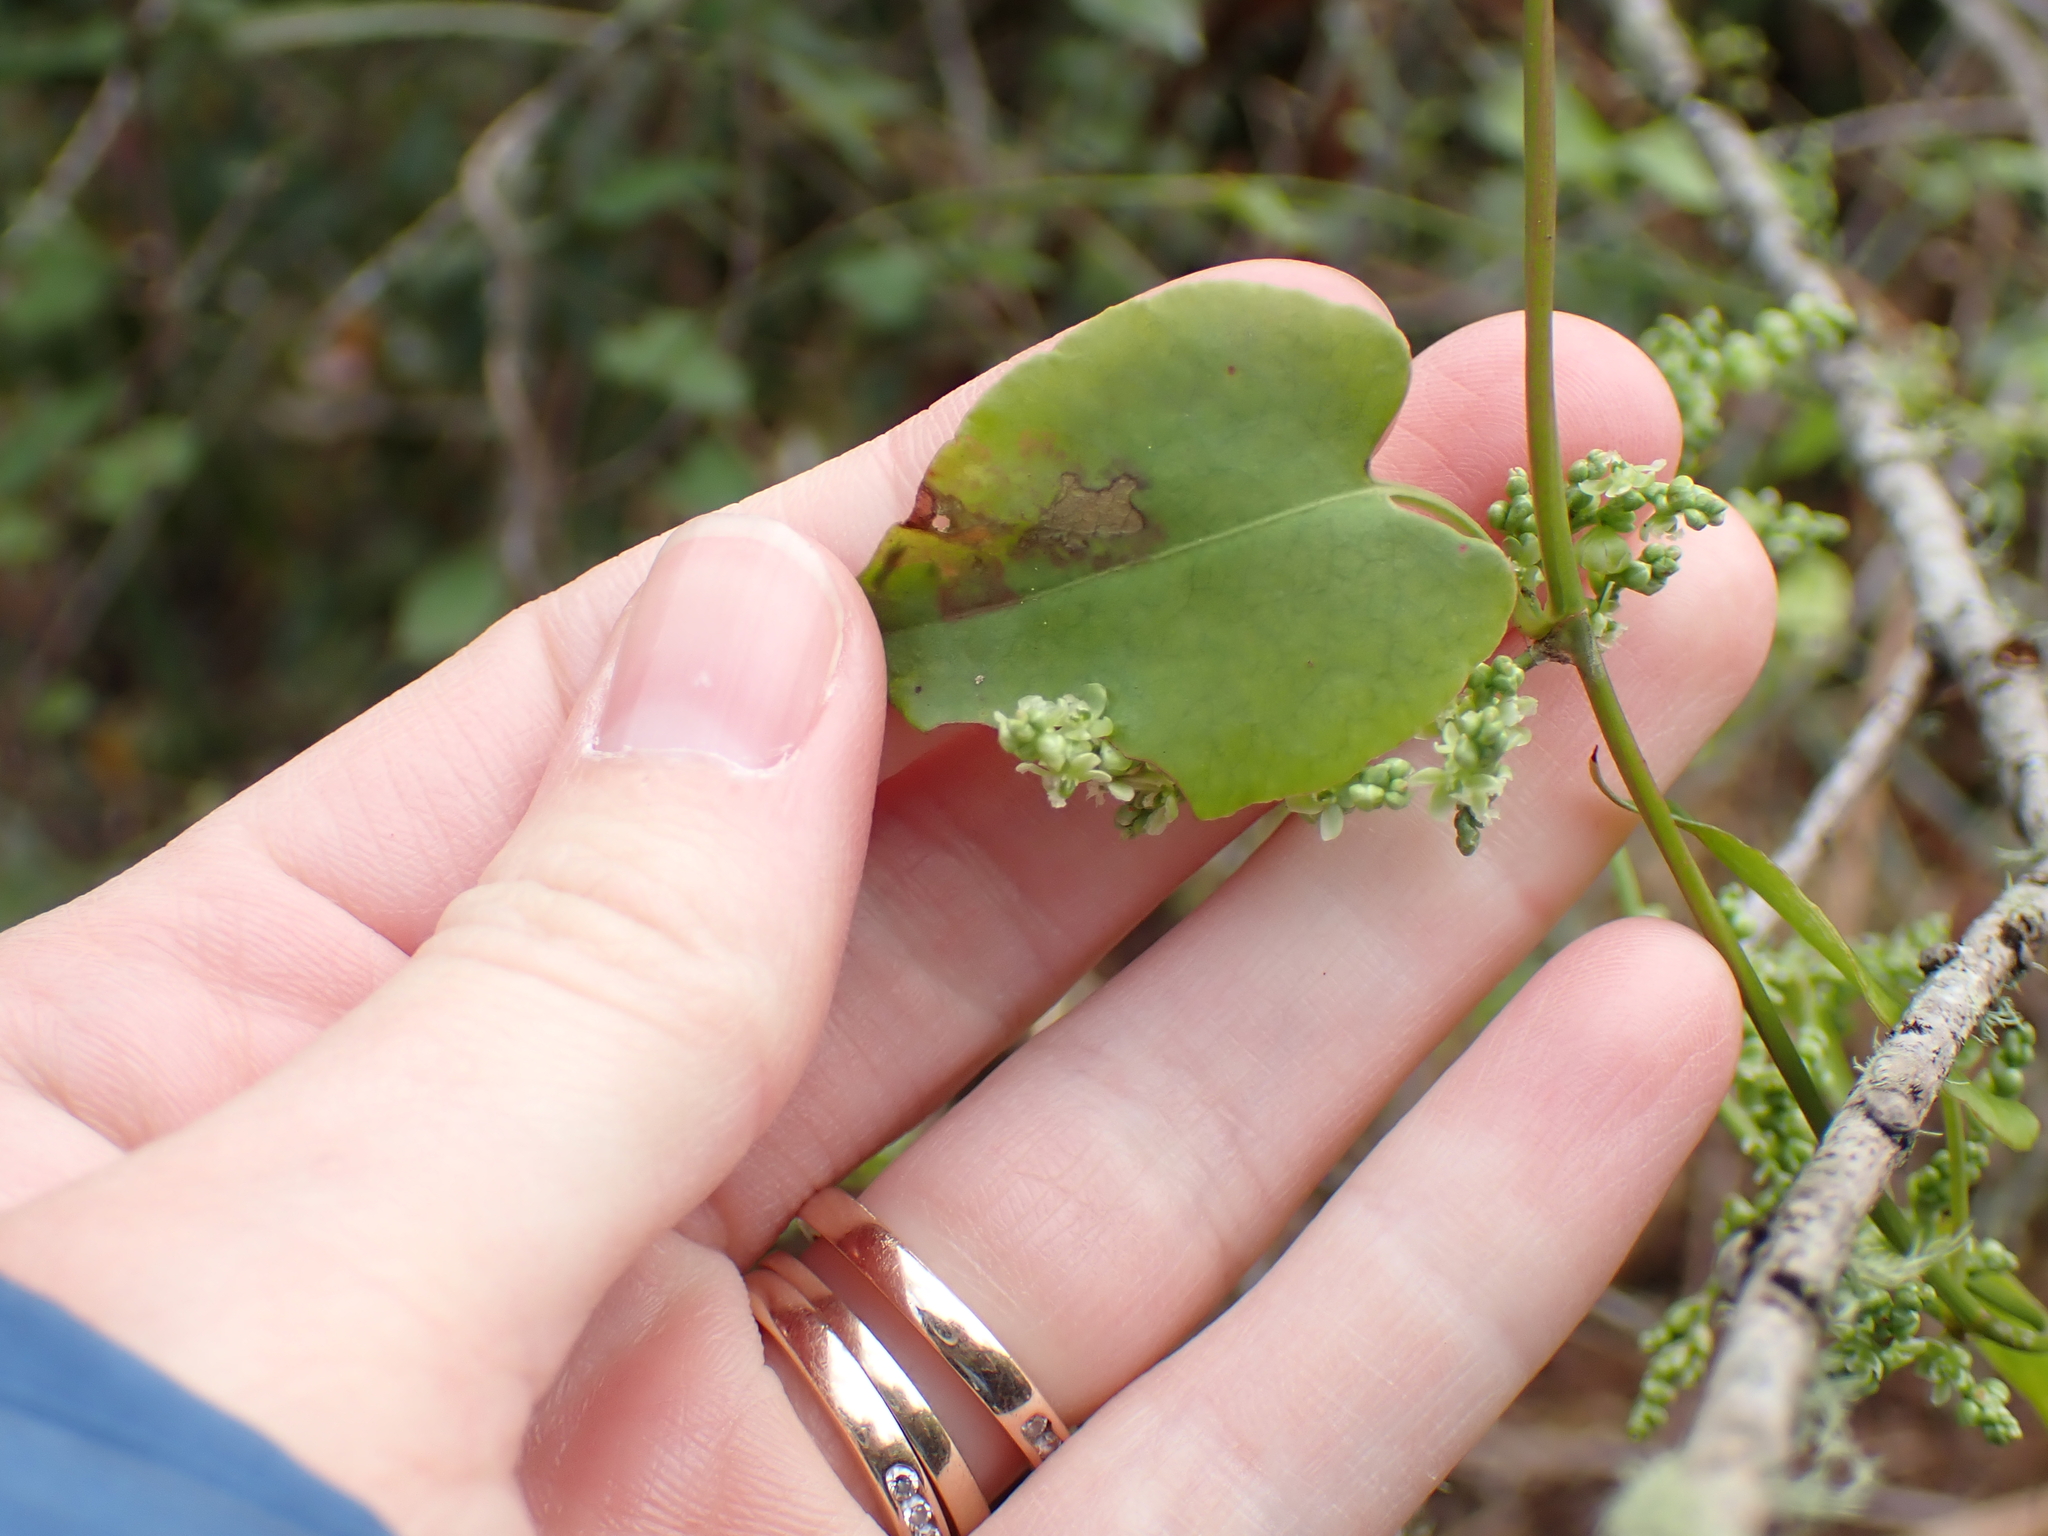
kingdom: Plantae
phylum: Tracheophyta
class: Magnoliopsida
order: Caryophyllales
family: Polygonaceae
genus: Muehlenbeckia
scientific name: Muehlenbeckia australis
